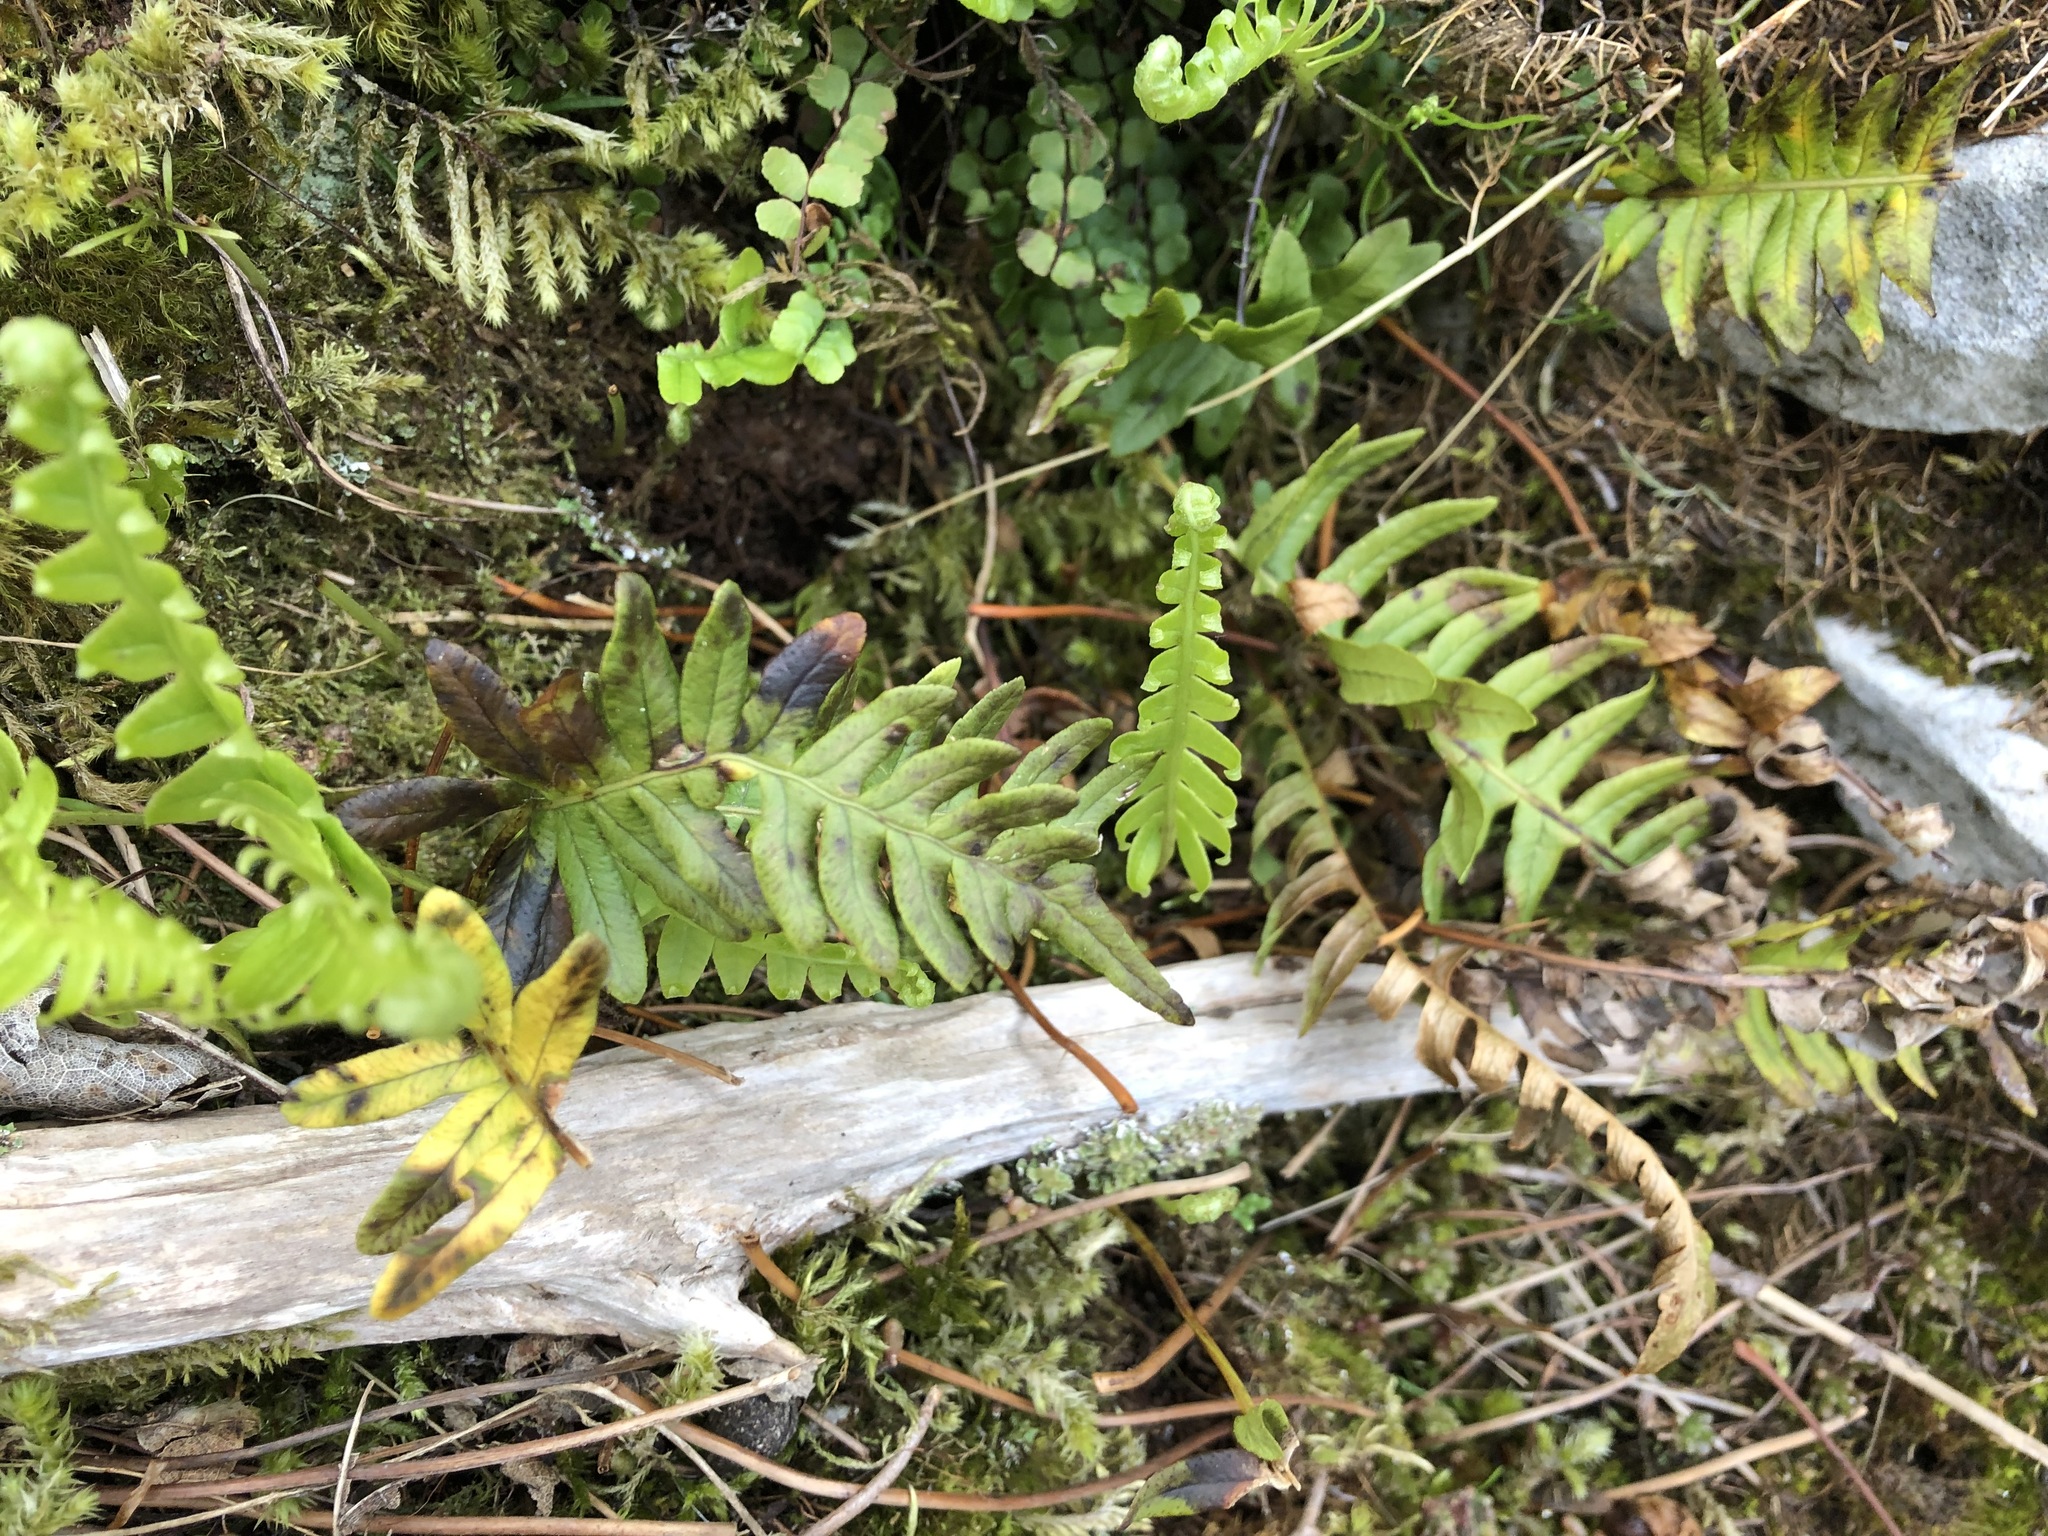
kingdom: Plantae
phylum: Tracheophyta
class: Polypodiopsida
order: Polypodiales
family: Polypodiaceae
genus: Polypodium
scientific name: Polypodium vulgare
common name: Common polypody
